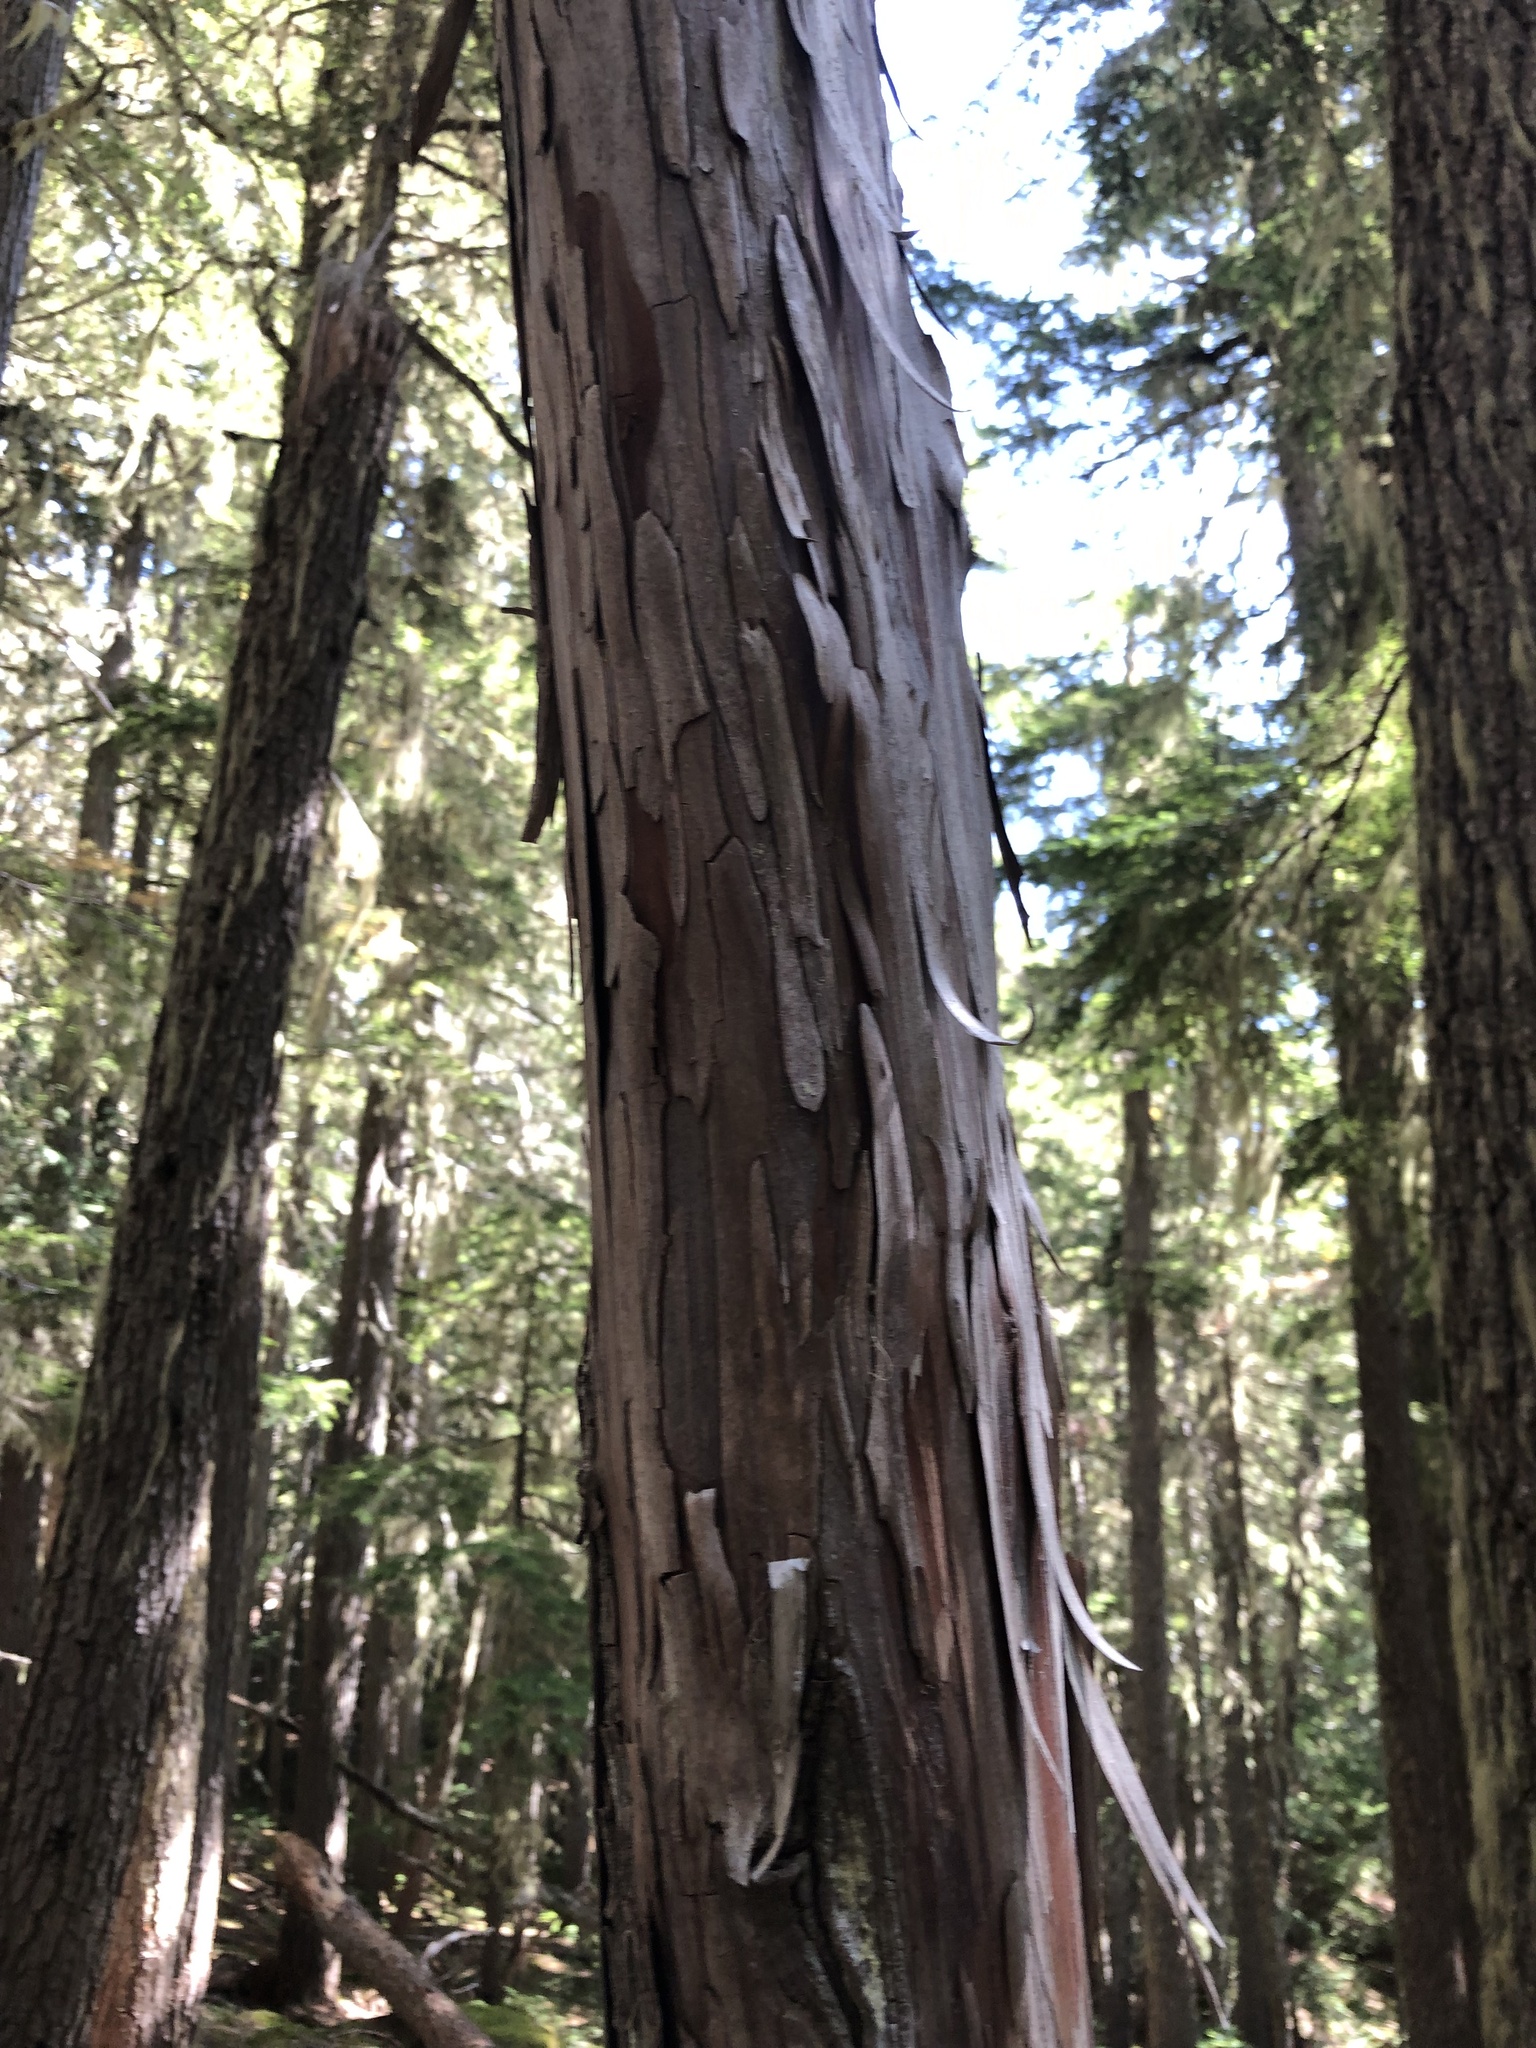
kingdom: Plantae
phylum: Tracheophyta
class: Pinopsida
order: Pinales
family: Cupressaceae
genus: Xanthocyparis
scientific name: Xanthocyparis nootkatensis
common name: Nootka cypress
